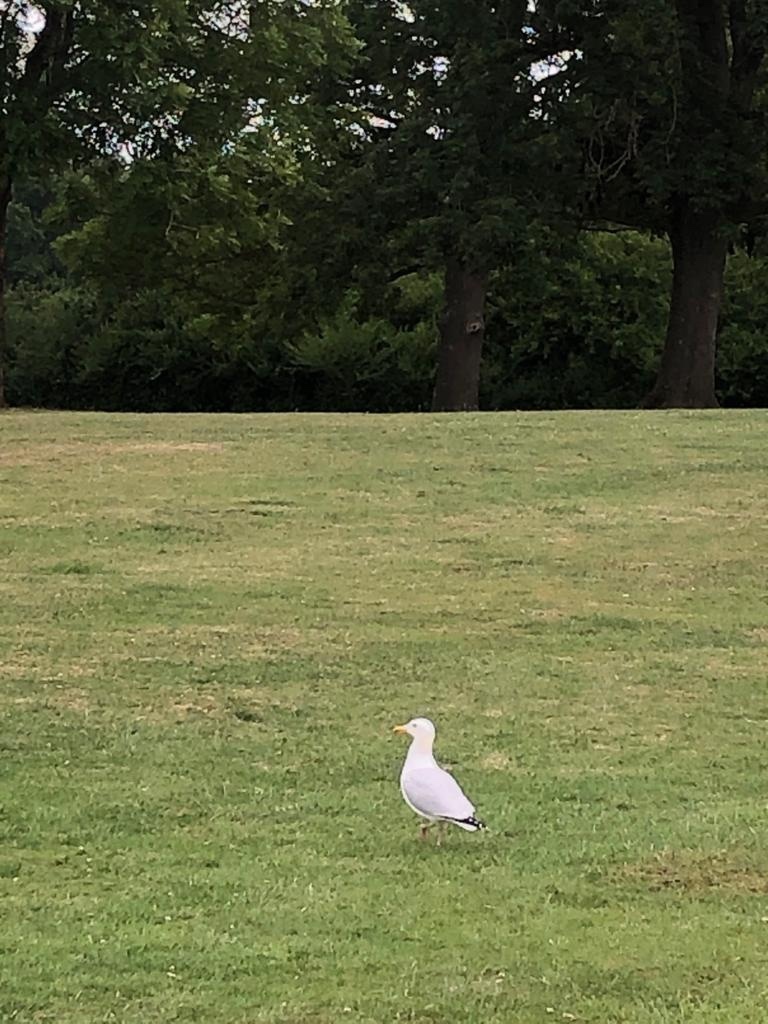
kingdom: Animalia
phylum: Chordata
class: Aves
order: Charadriiformes
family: Laridae
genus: Larus
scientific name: Larus argentatus
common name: Herring gull
